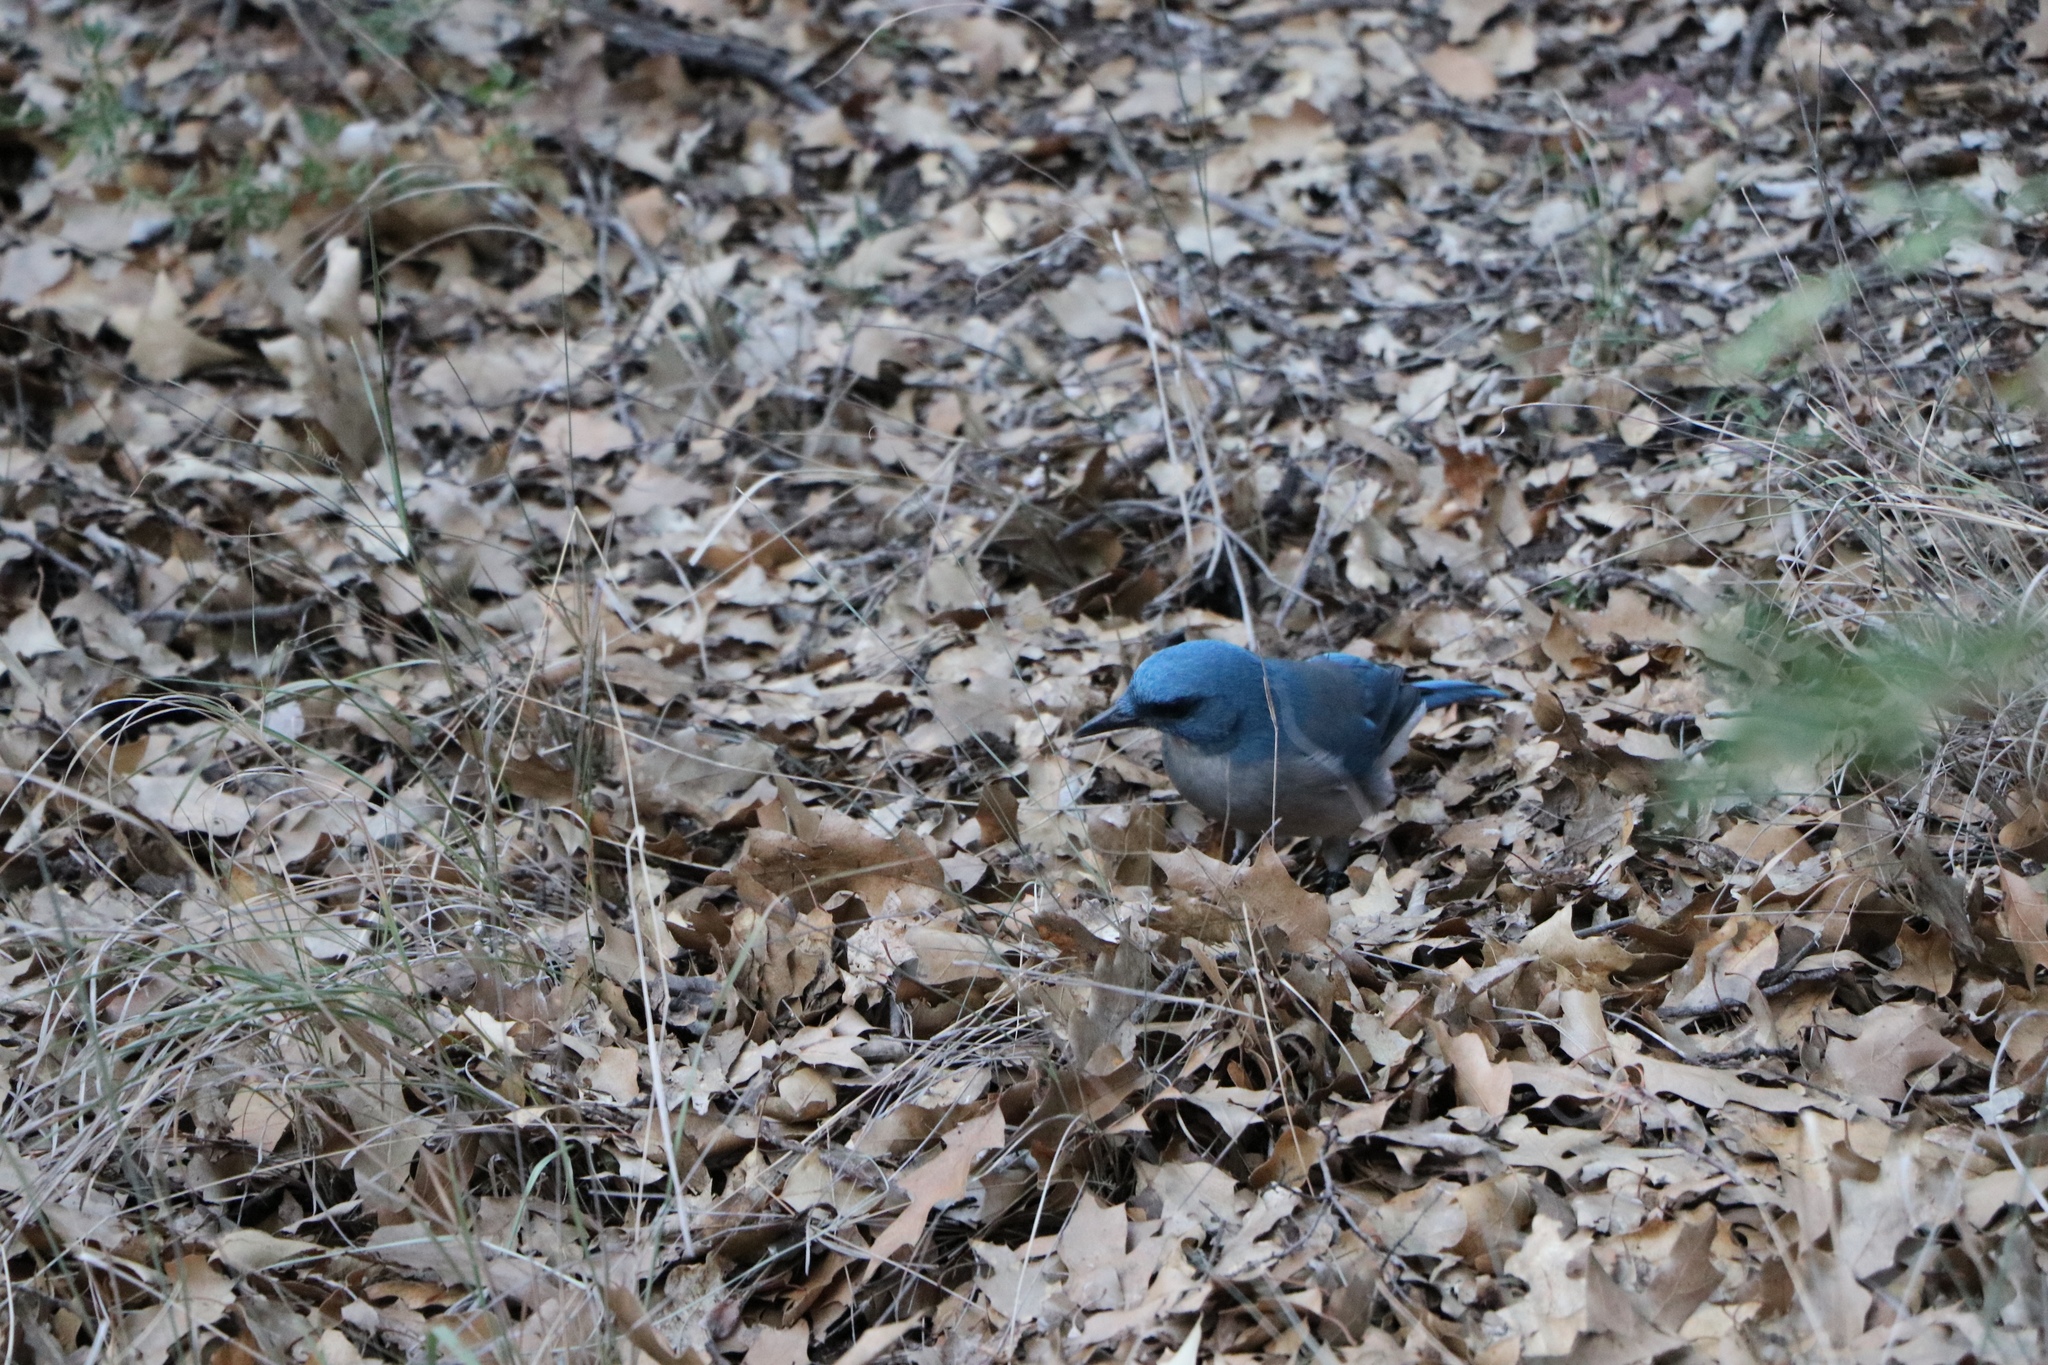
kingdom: Animalia
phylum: Chordata
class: Aves
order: Passeriformes
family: Corvidae
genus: Aphelocoma
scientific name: Aphelocoma wollweberi
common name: Mexican jay
